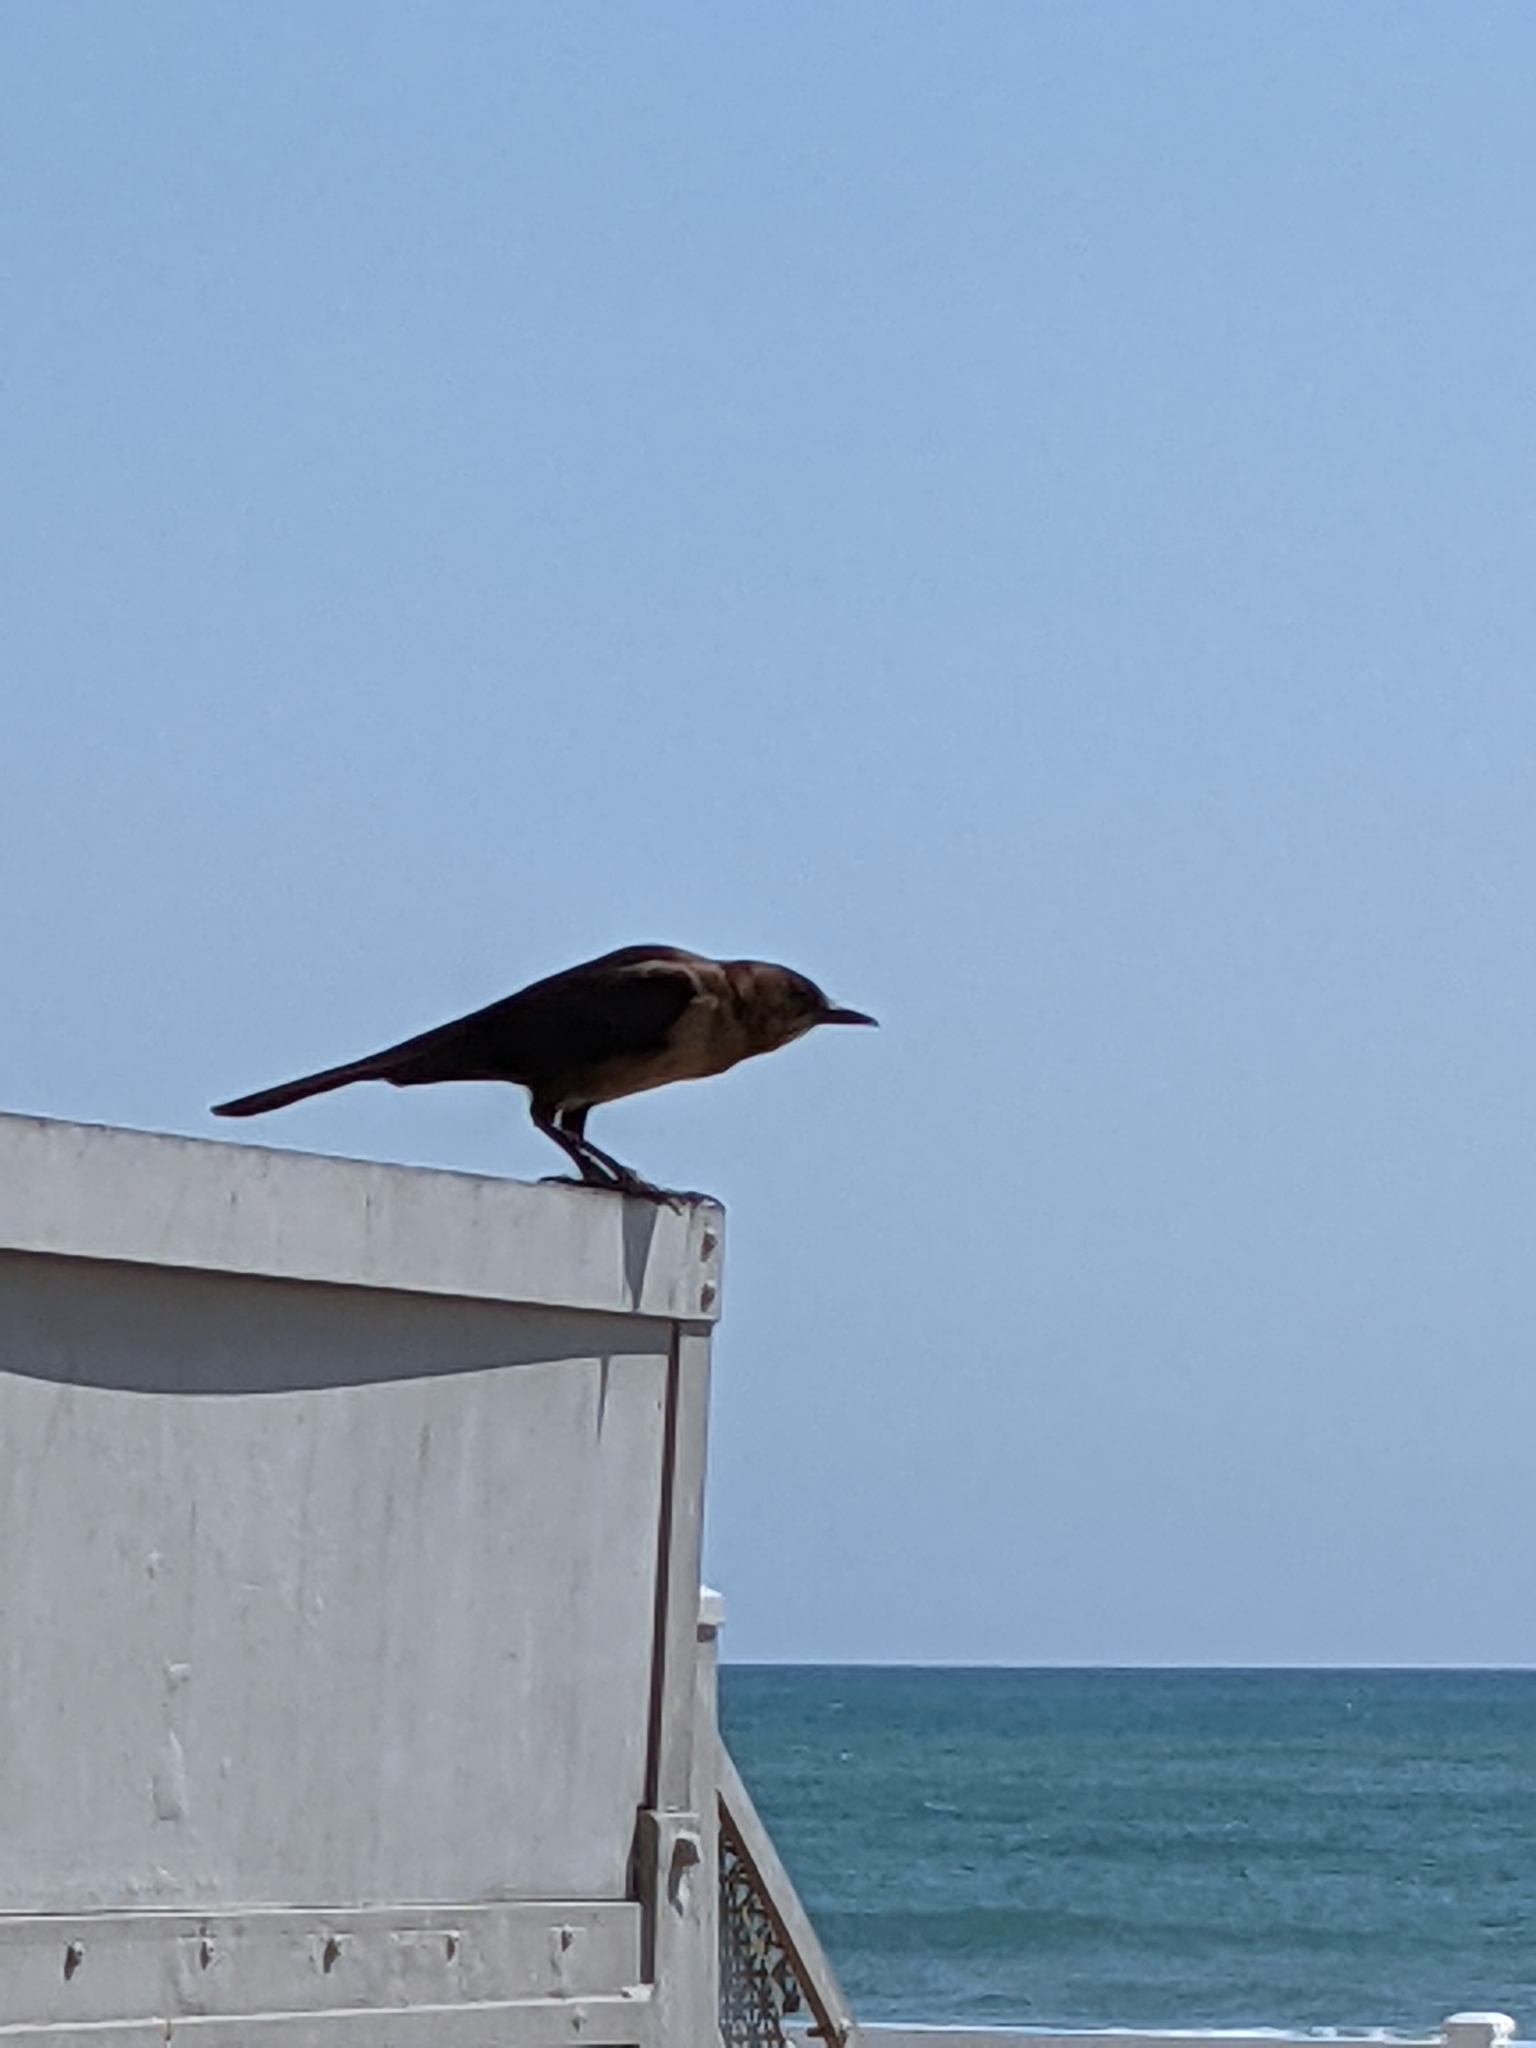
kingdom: Animalia
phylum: Chordata
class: Aves
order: Passeriformes
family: Icteridae
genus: Quiscalus
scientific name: Quiscalus major
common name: Boat-tailed grackle
